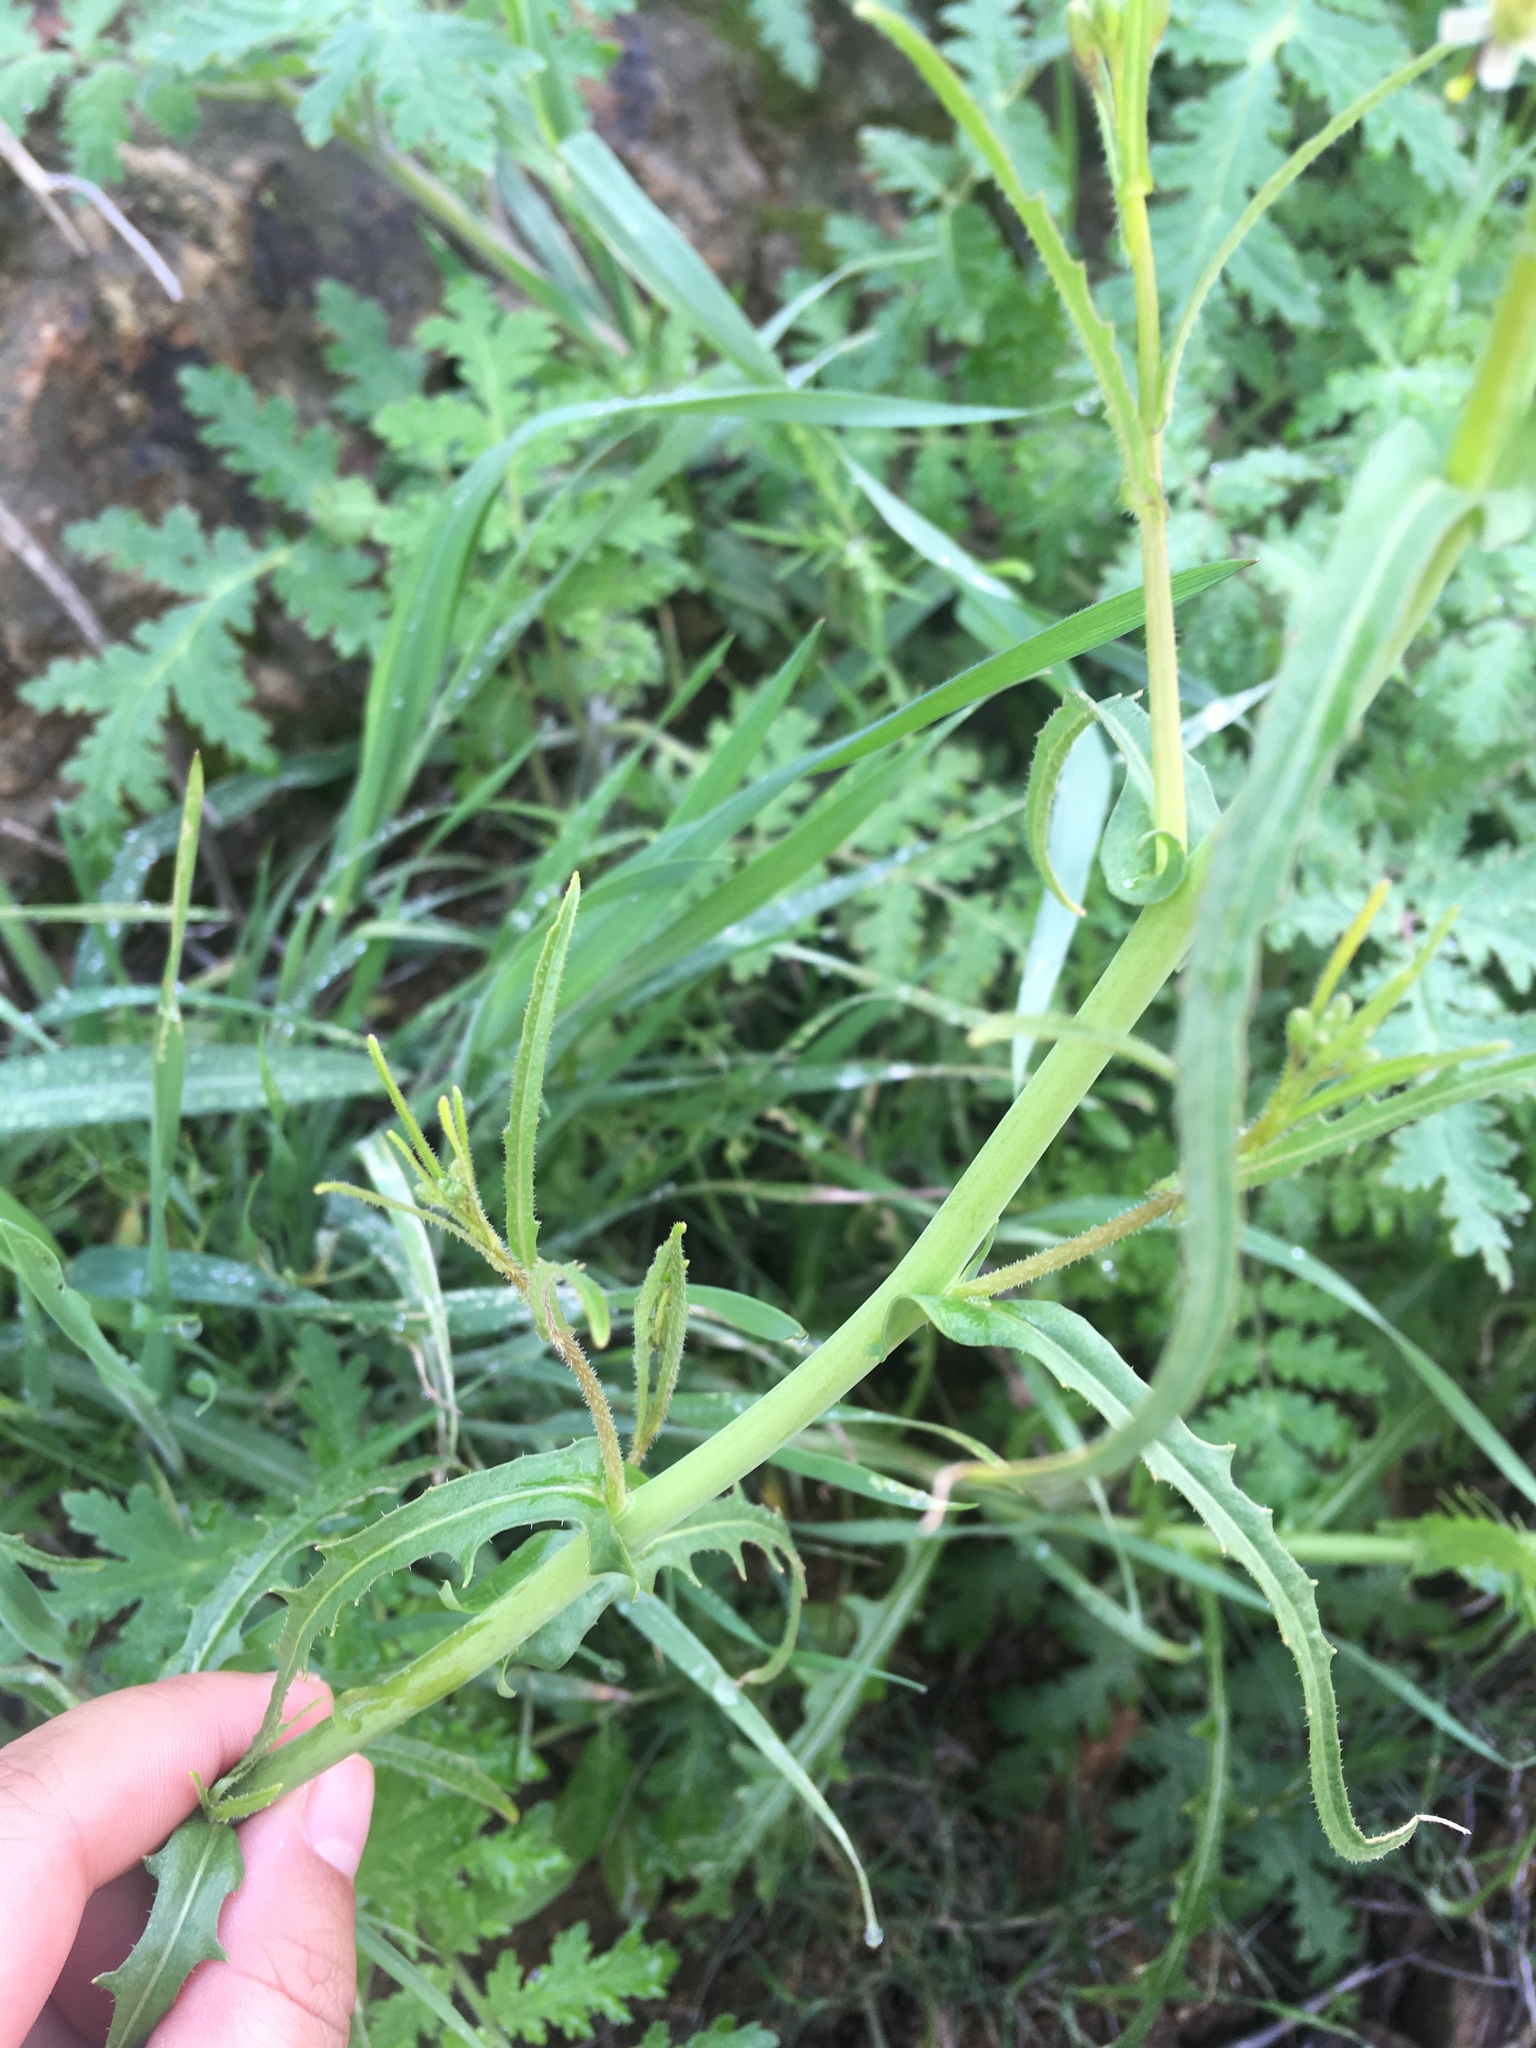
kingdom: Plantae
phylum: Tracheophyta
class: Magnoliopsida
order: Brassicales
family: Brassicaceae
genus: Streptanthus
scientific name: Streptanthus heterophyllus
